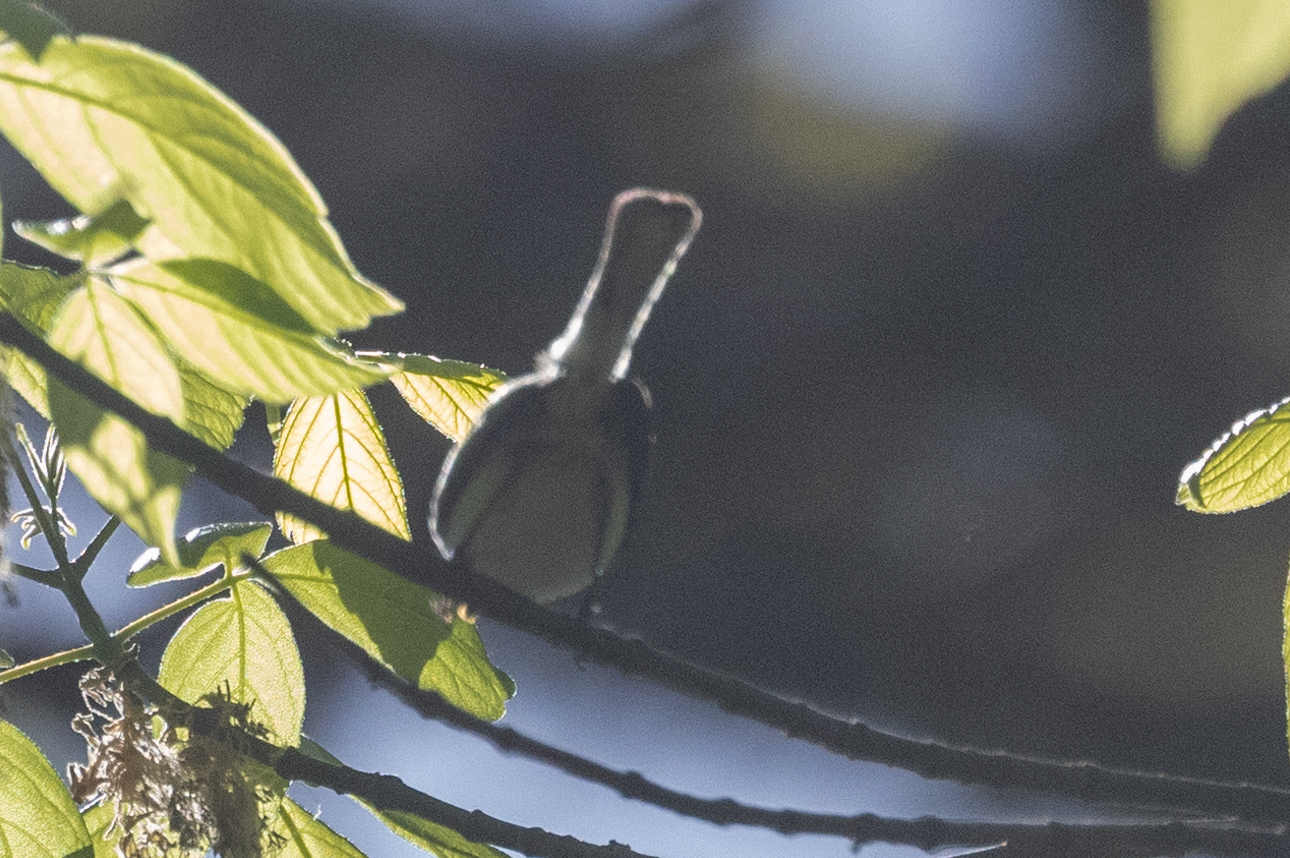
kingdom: Animalia
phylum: Chordata
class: Aves
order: Passeriformes
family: Polioptilidae
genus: Polioptila
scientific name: Polioptila caerulea
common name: Blue-gray gnatcatcher
